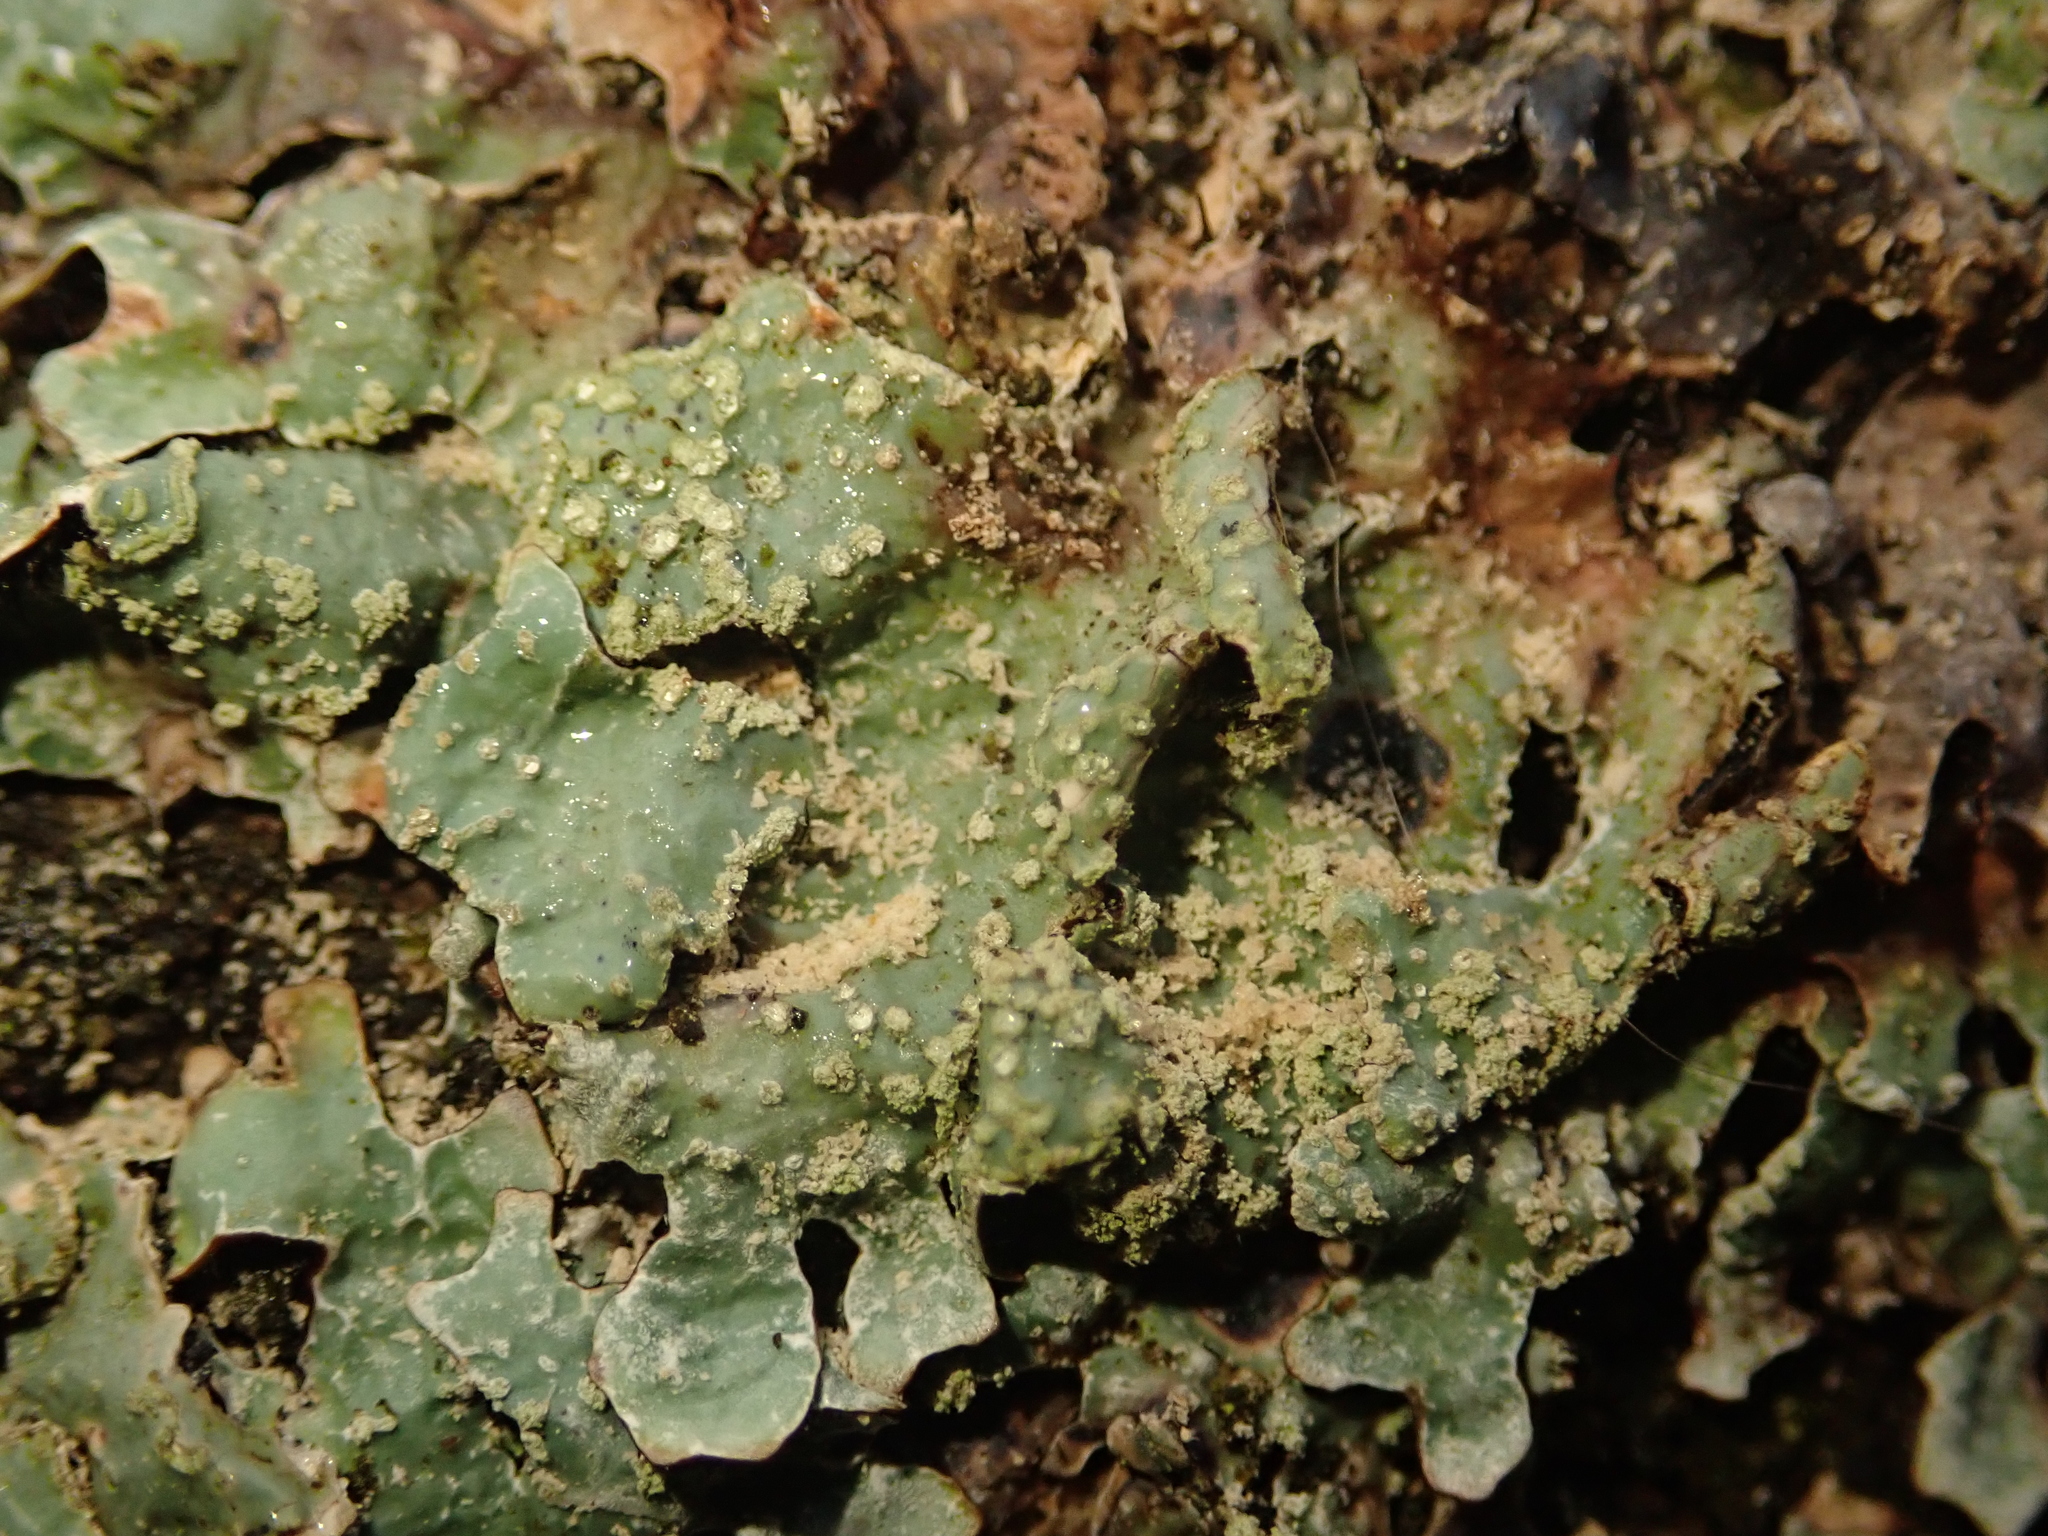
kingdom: Fungi
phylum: Ascomycota
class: Lecanoromycetes
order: Lecanorales
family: Parmeliaceae
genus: Parmelia
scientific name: Parmelia sulcata
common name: Netted shield lichen
